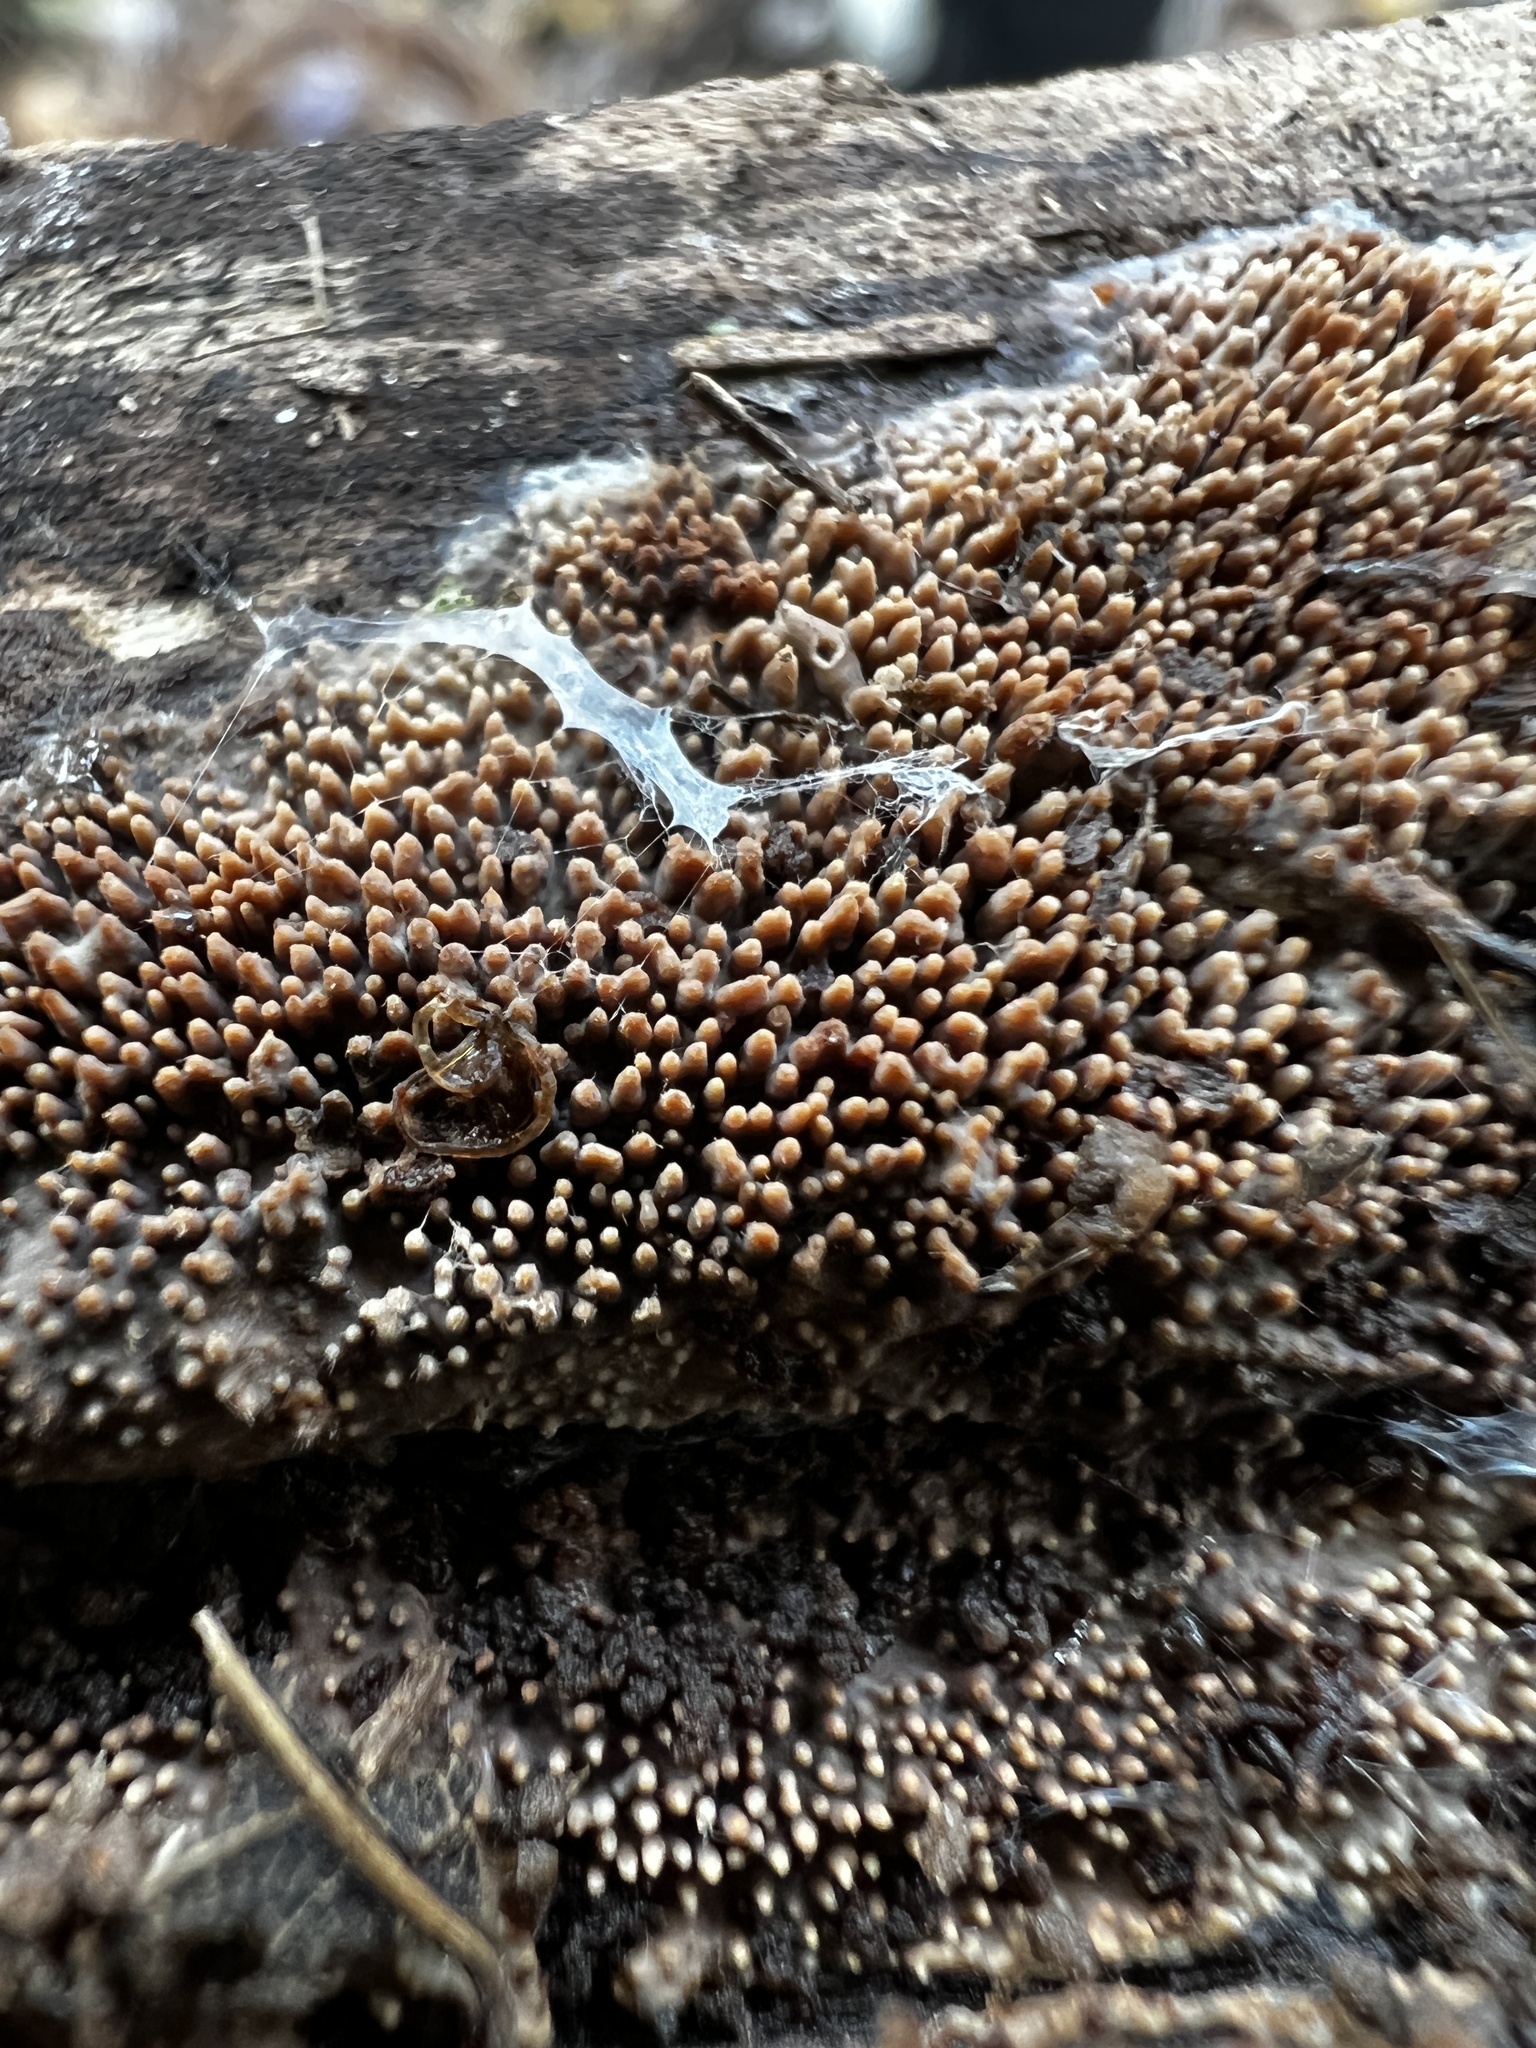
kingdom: Fungi
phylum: Basidiomycota
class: Agaricomycetes
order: Polyporales
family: Meruliaceae
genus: Mycoacia
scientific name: Mycoacia fuscoatra
